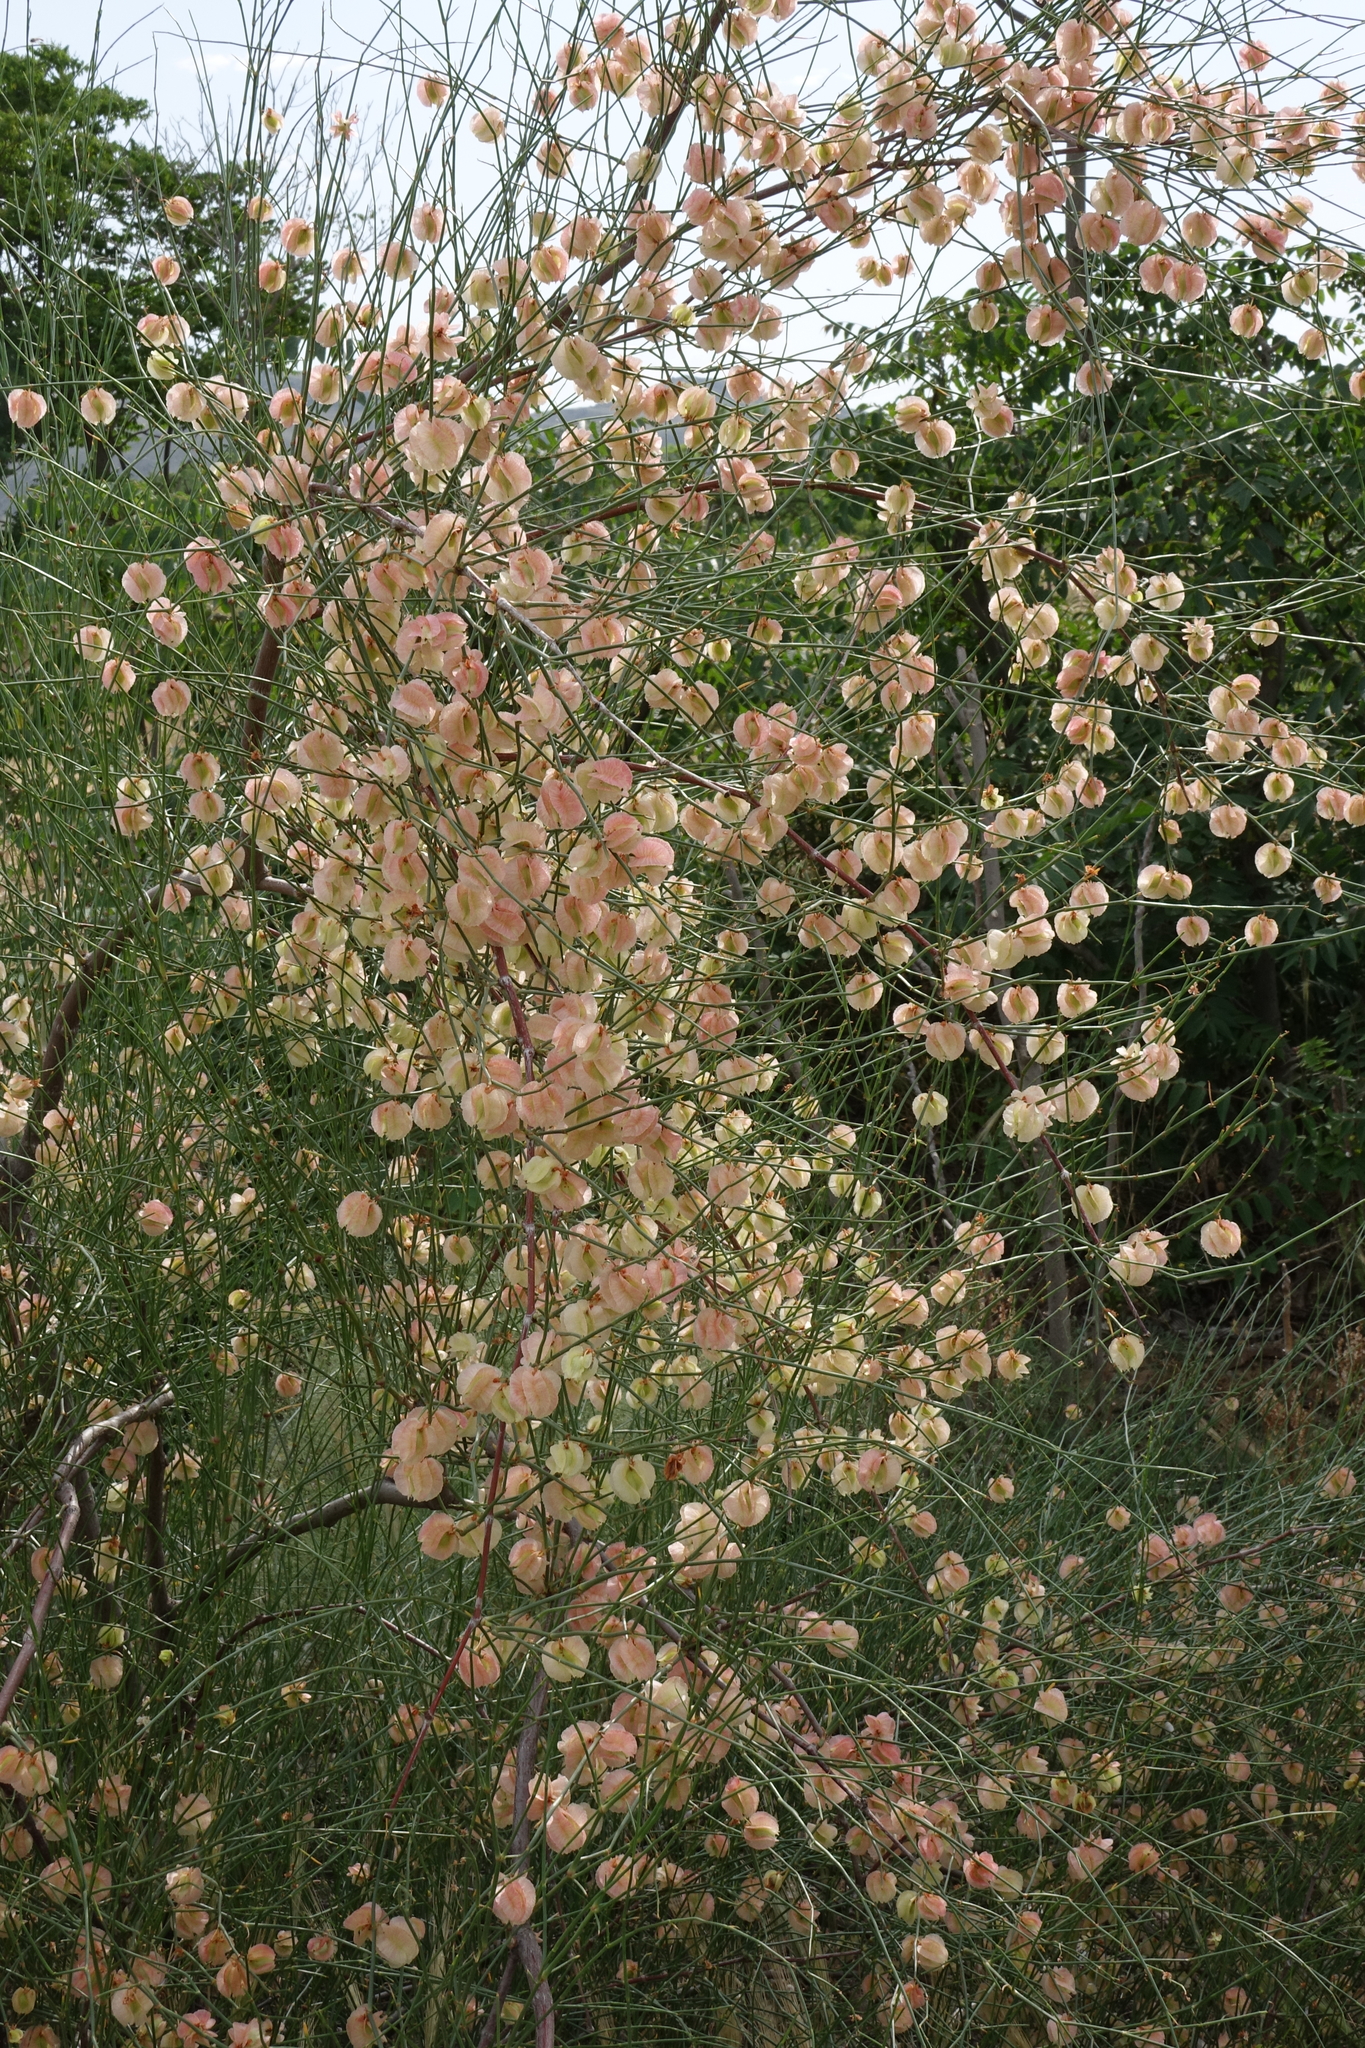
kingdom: Plantae
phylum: Tracheophyta
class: Magnoliopsida
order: Caryophyllales
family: Polygonaceae
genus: Calligonum
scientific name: Calligonum aphyllum
